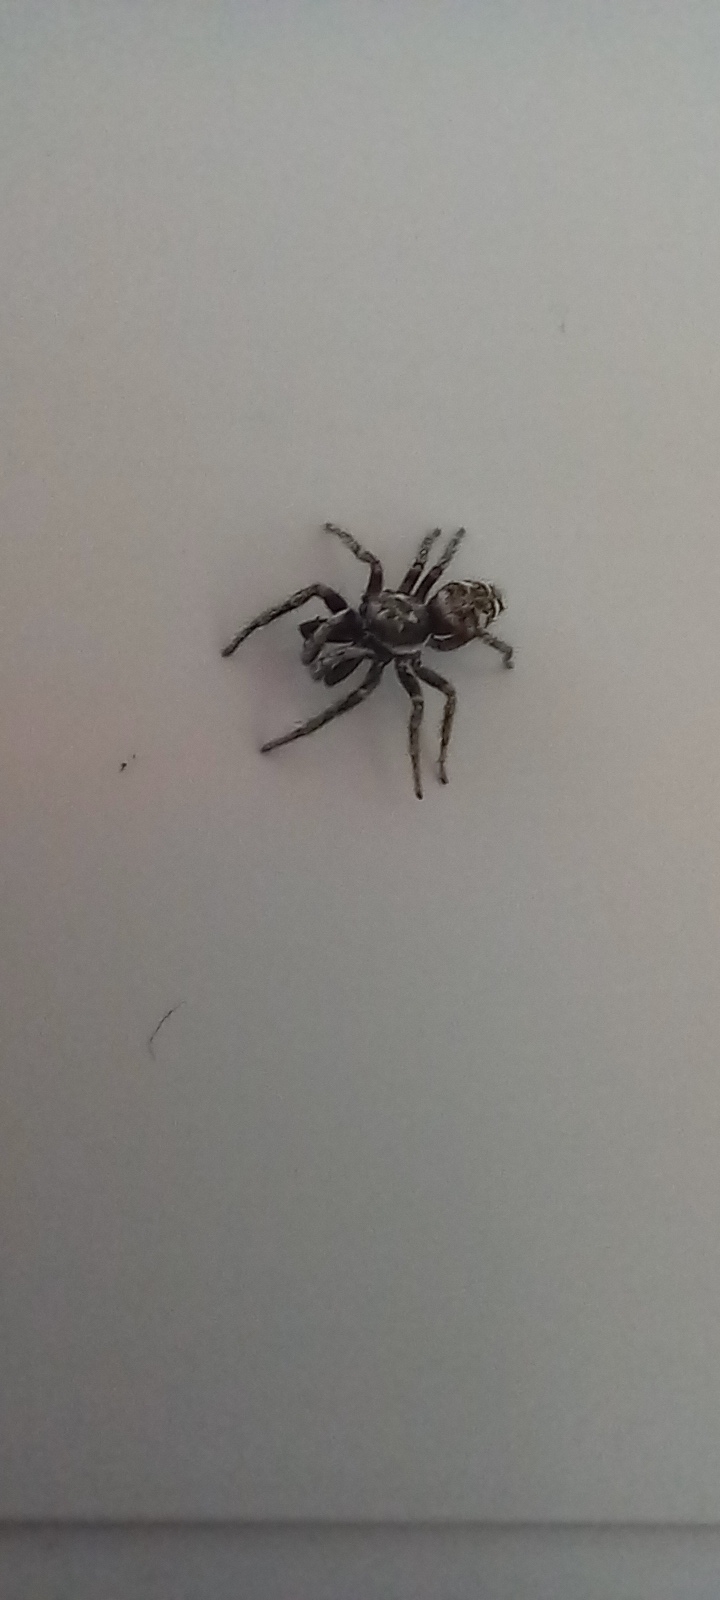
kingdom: Animalia
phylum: Arthropoda
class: Arachnida
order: Araneae
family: Salticidae
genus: Salticus
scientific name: Salticus scenicus
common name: Zebra jumper
